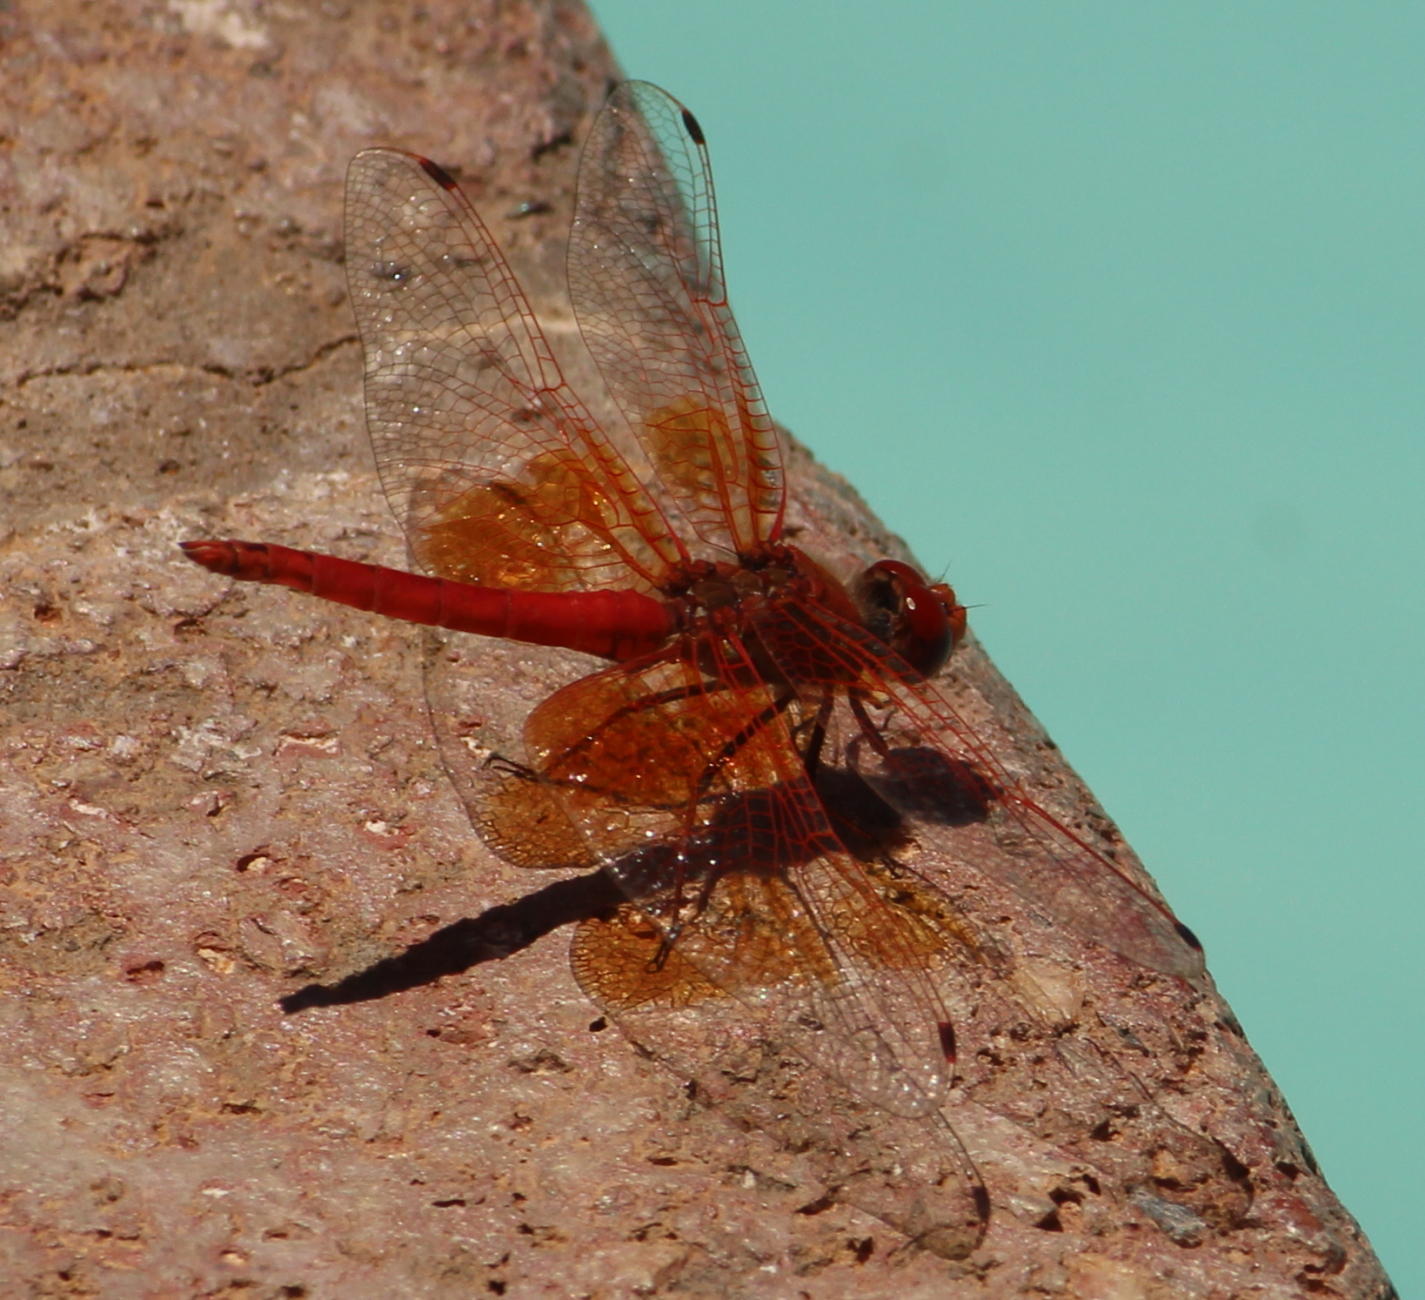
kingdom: Animalia
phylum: Arthropoda
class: Insecta
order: Odonata
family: Libellulidae
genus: Trithemis
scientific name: Trithemis kirbyi
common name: Kirby's dropwing
